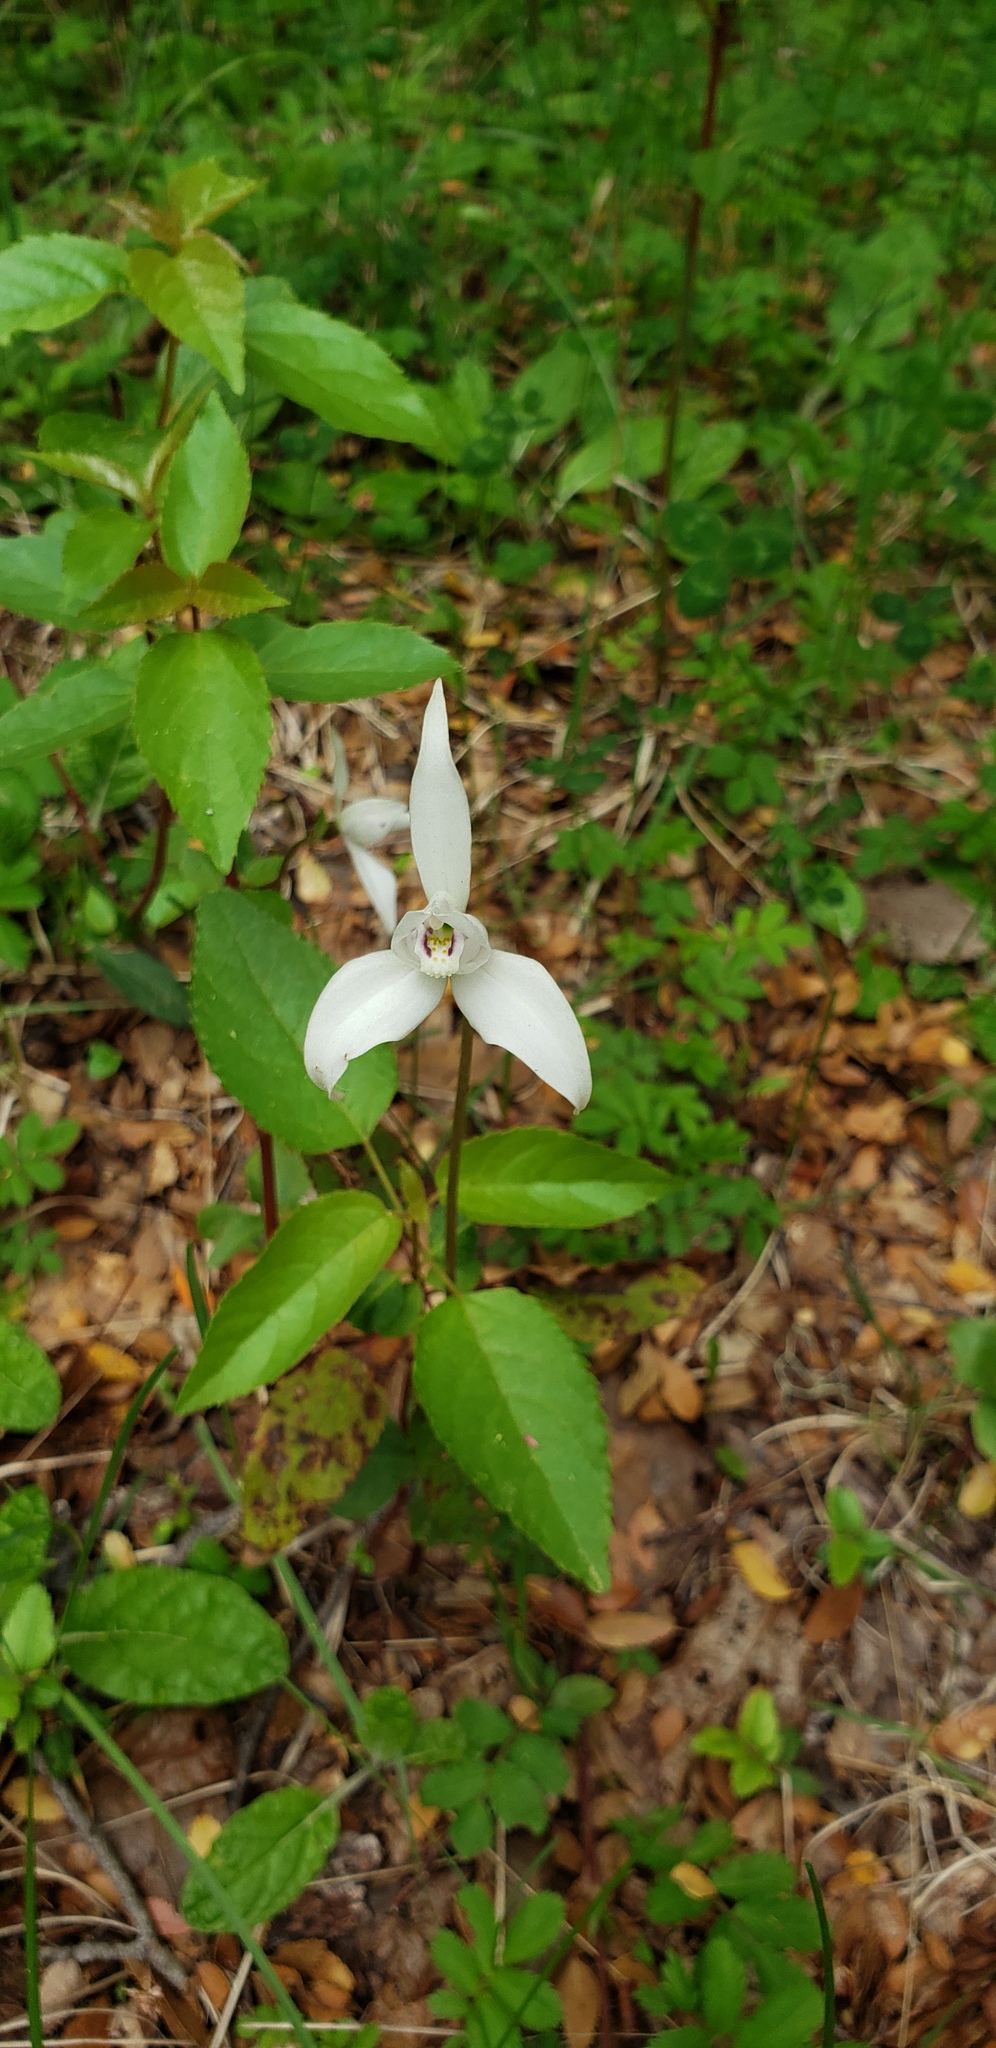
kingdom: Plantae
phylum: Tracheophyta
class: Liliopsida
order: Asparagales
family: Orchidaceae
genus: Codonorchis
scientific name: Codonorchis lessonii
